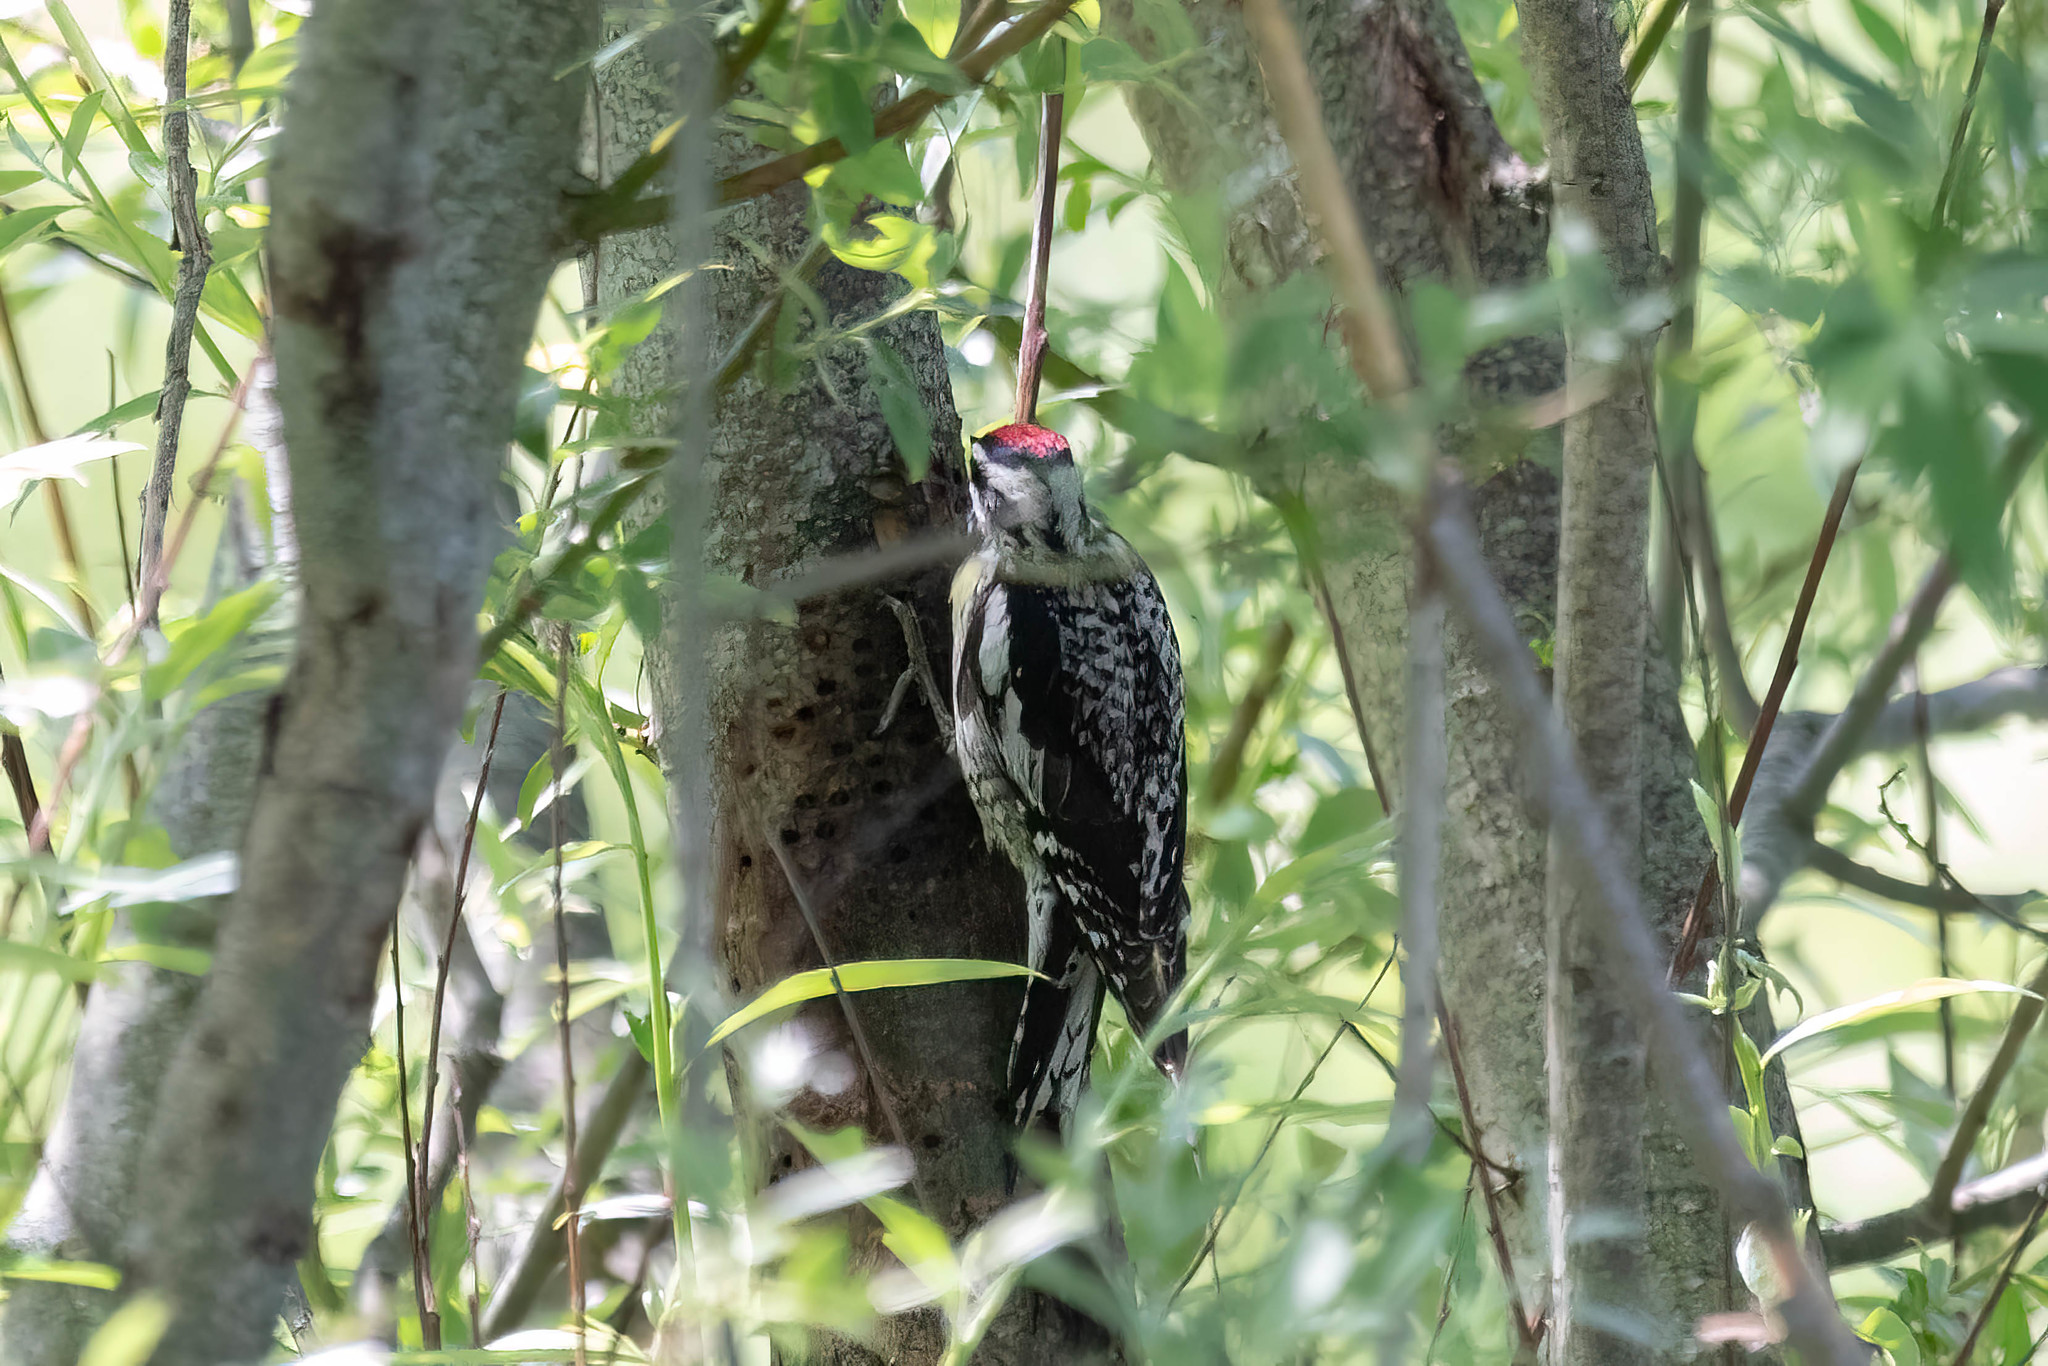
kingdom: Animalia
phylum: Chordata
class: Aves
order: Piciformes
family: Picidae
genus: Sphyrapicus
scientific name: Sphyrapicus varius
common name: Yellow-bellied sapsucker
